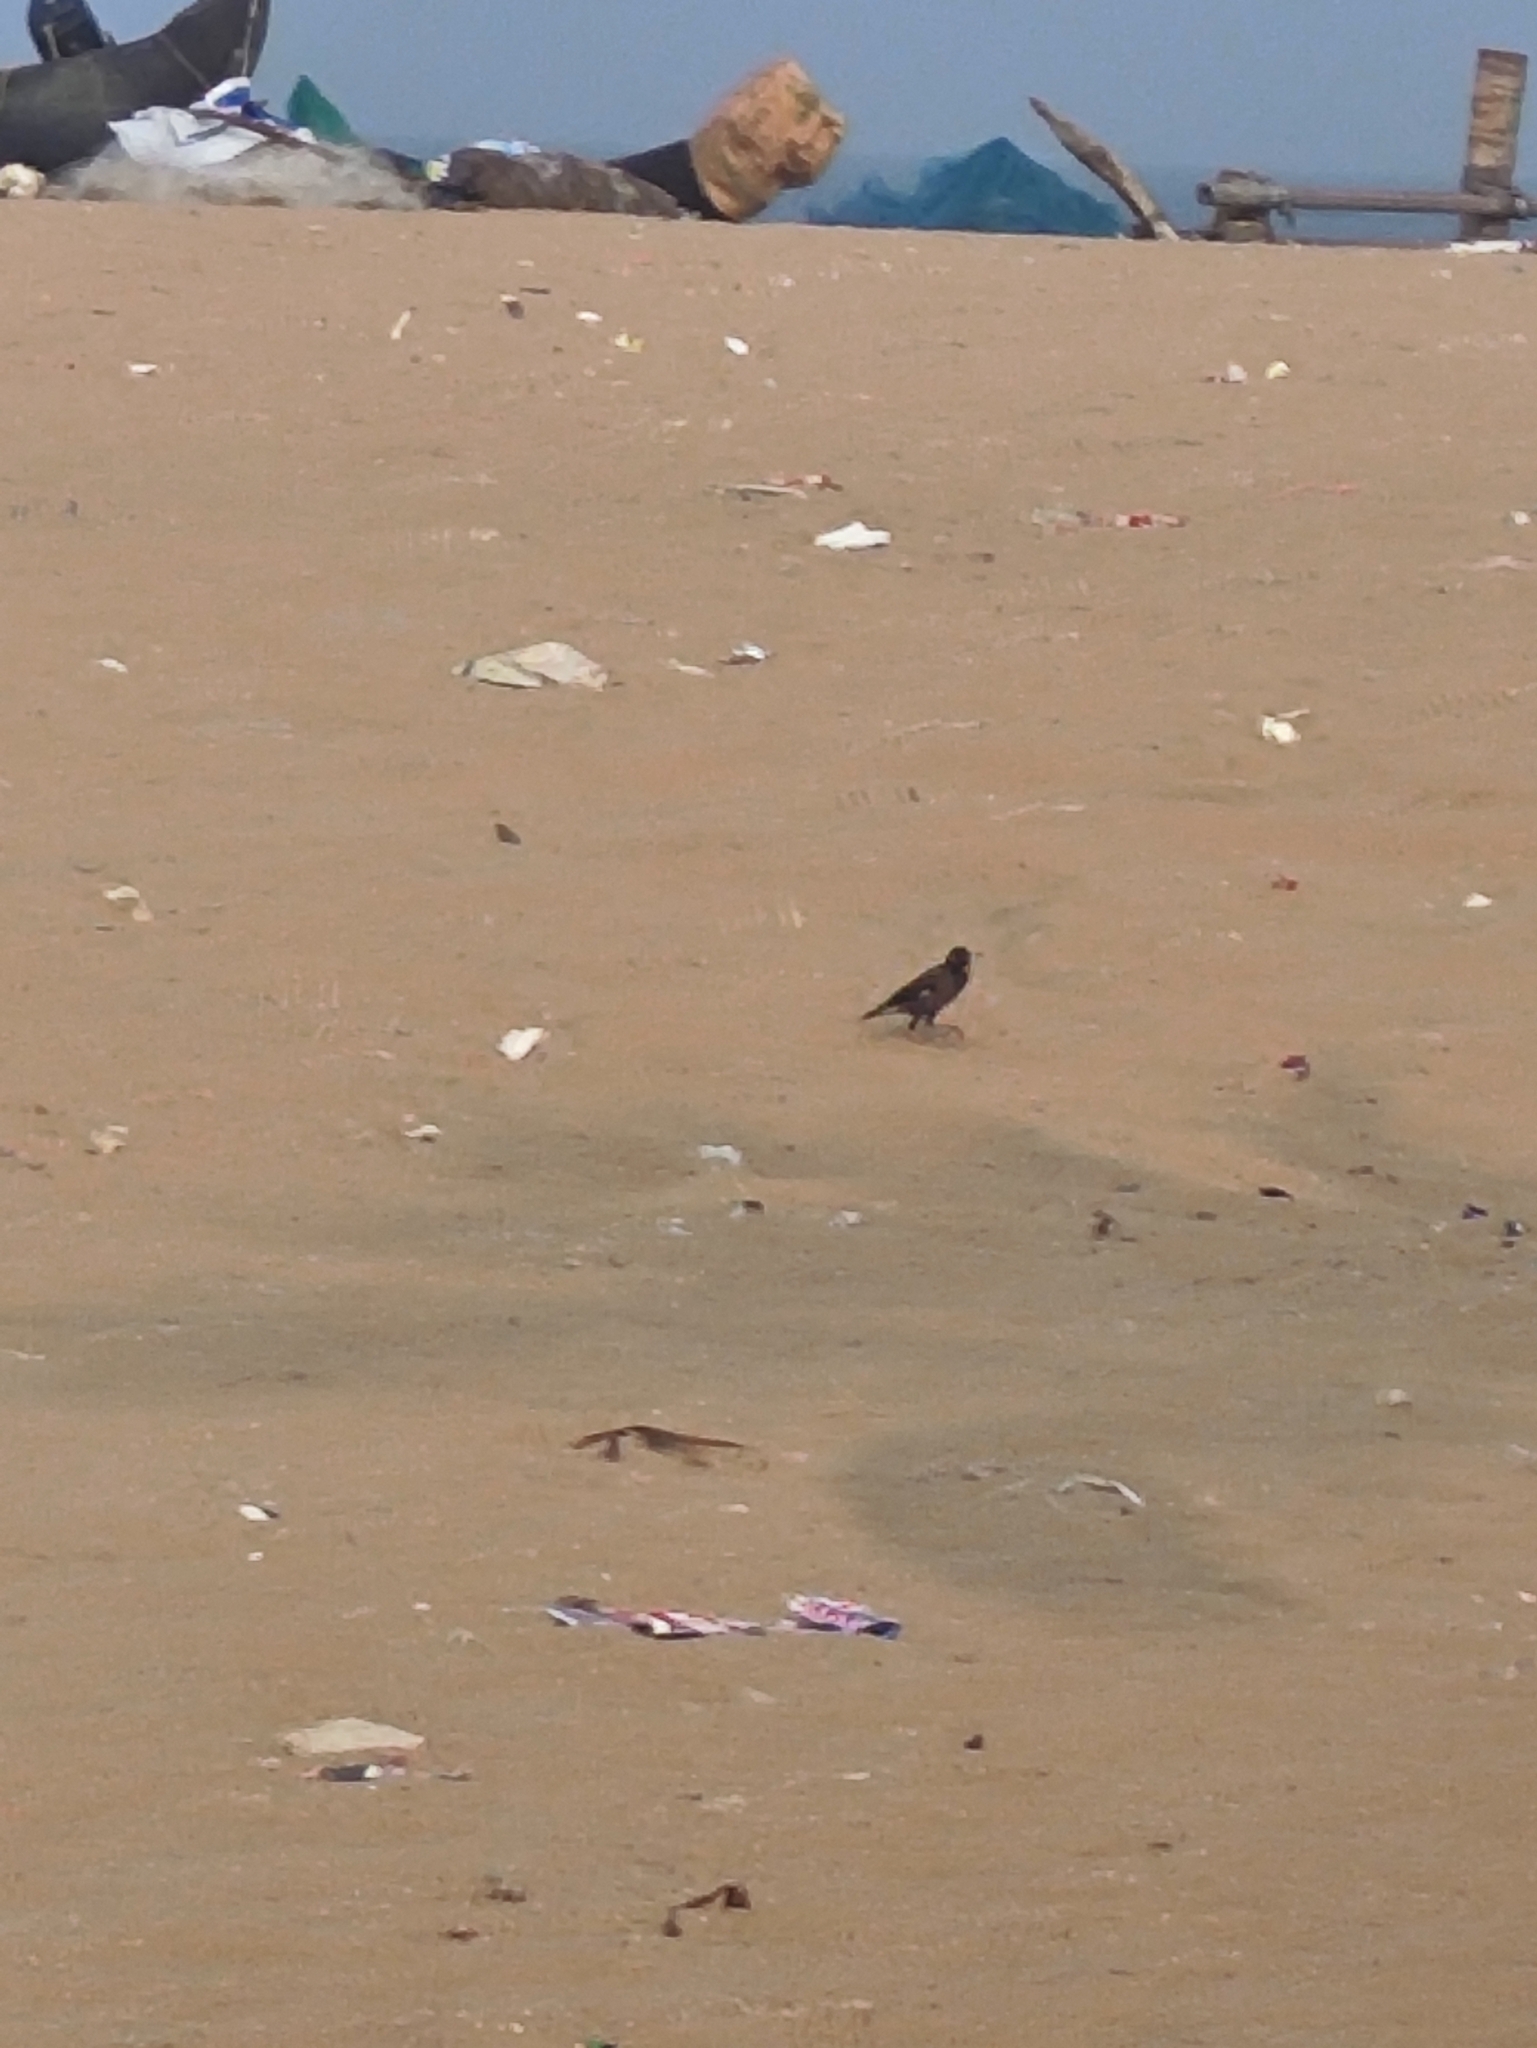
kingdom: Animalia
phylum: Chordata
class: Aves
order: Passeriformes
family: Sturnidae
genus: Acridotheres
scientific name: Acridotheres tristis
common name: Common myna
